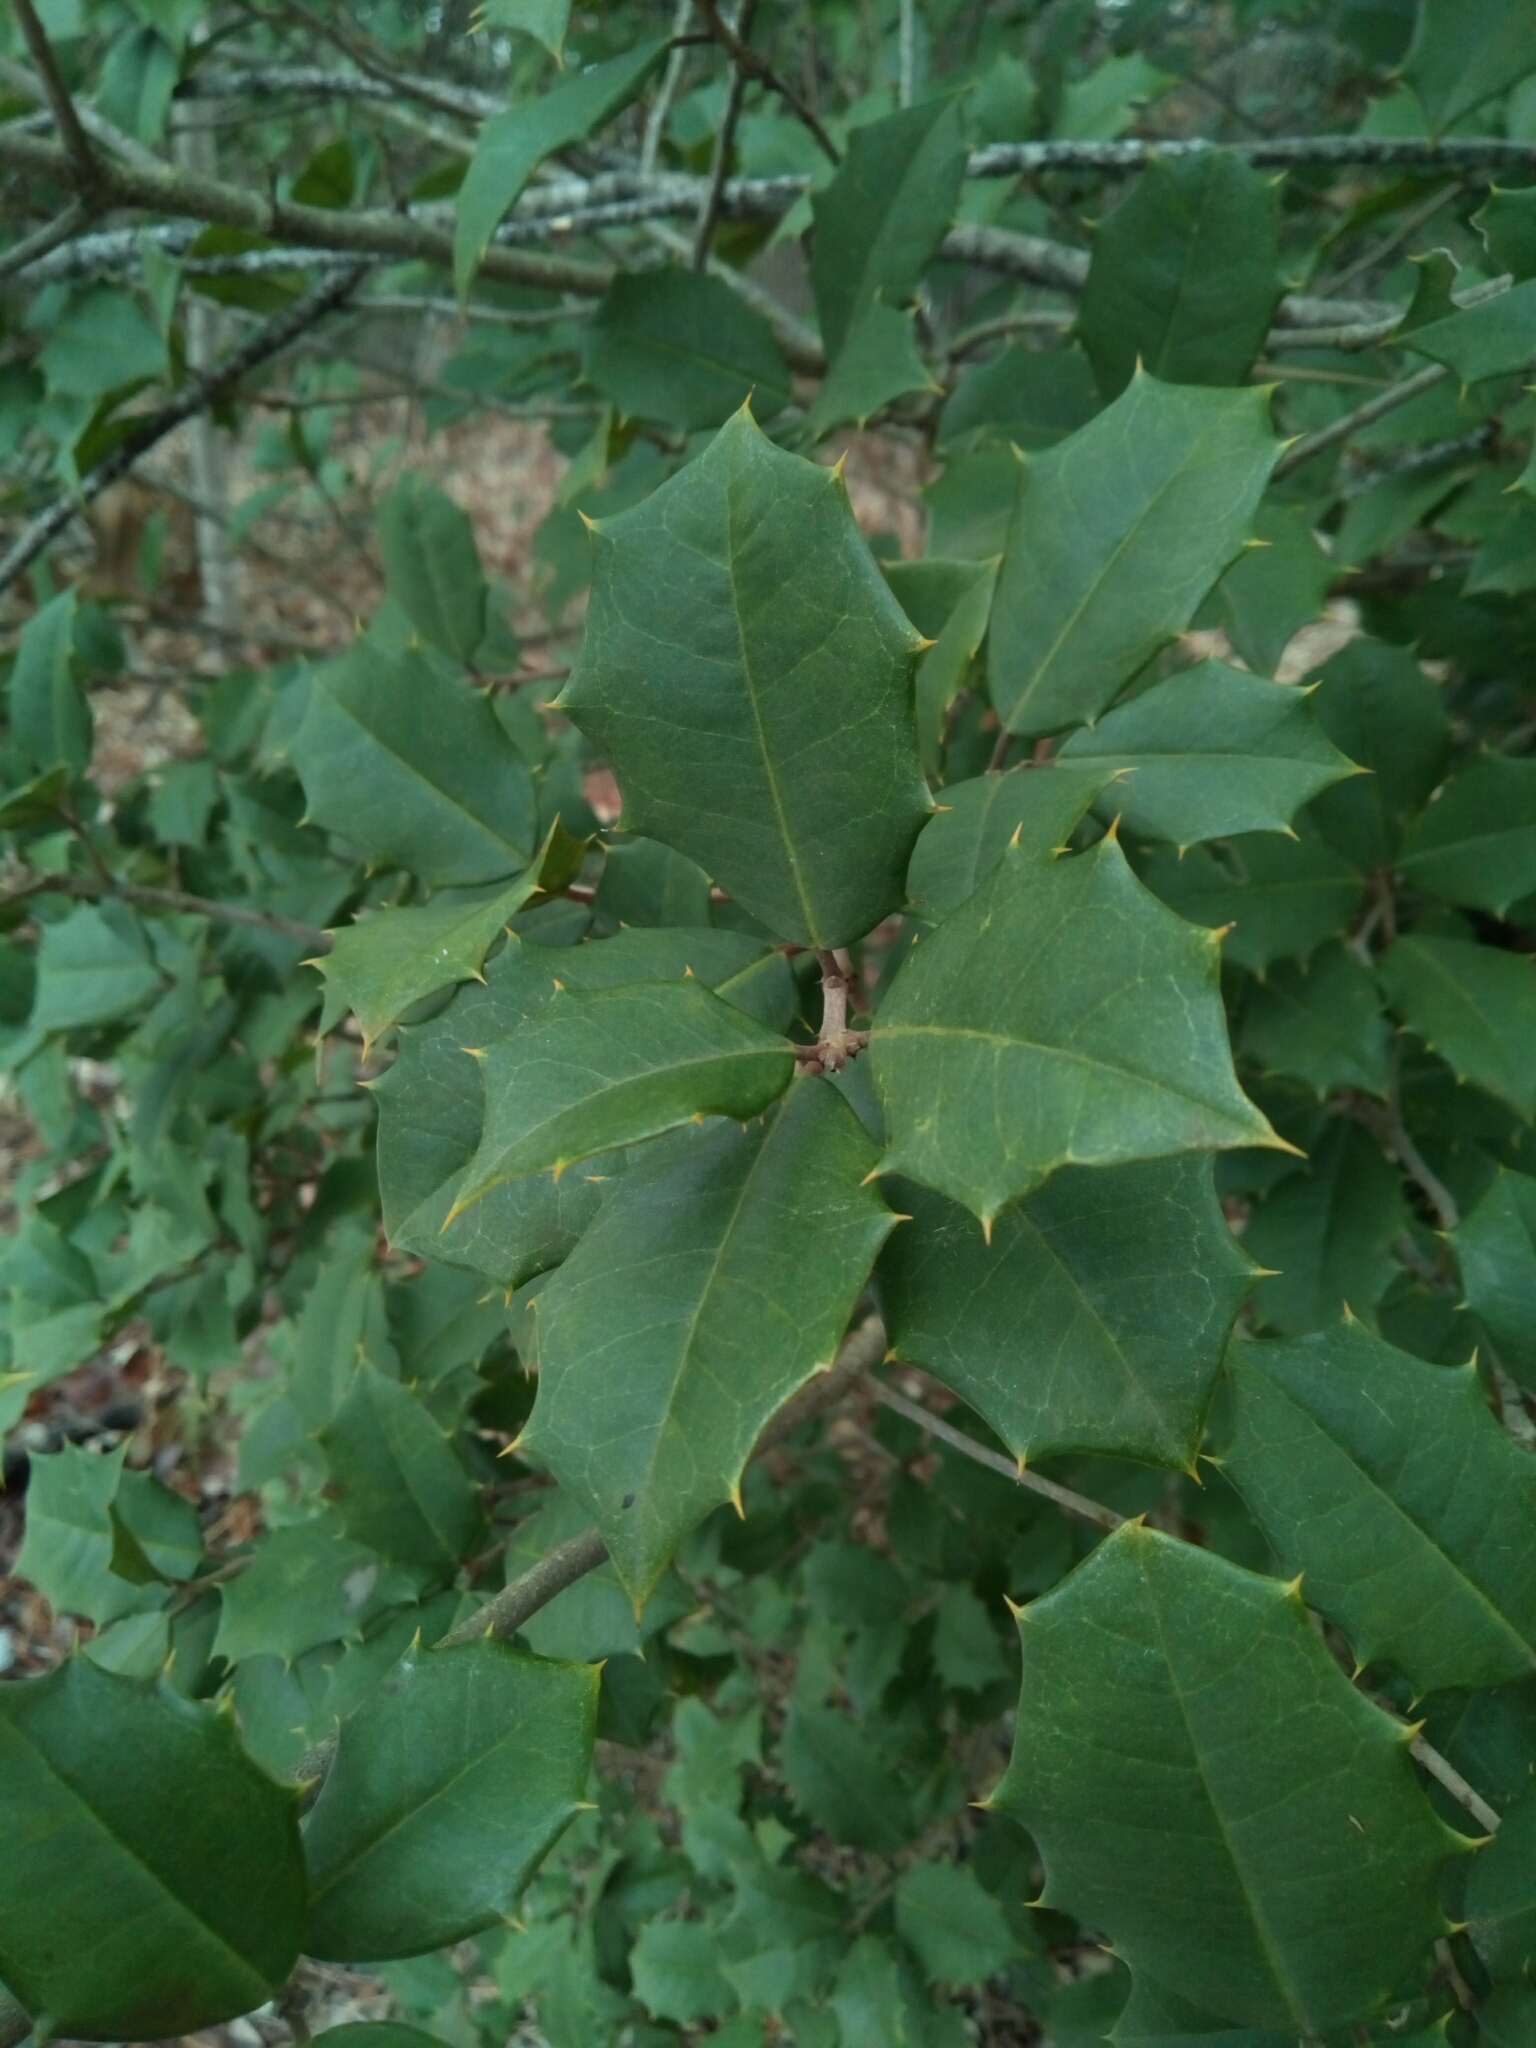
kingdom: Plantae
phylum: Tracheophyta
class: Magnoliopsida
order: Aquifoliales
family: Aquifoliaceae
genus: Ilex
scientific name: Ilex opaca
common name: American holly
